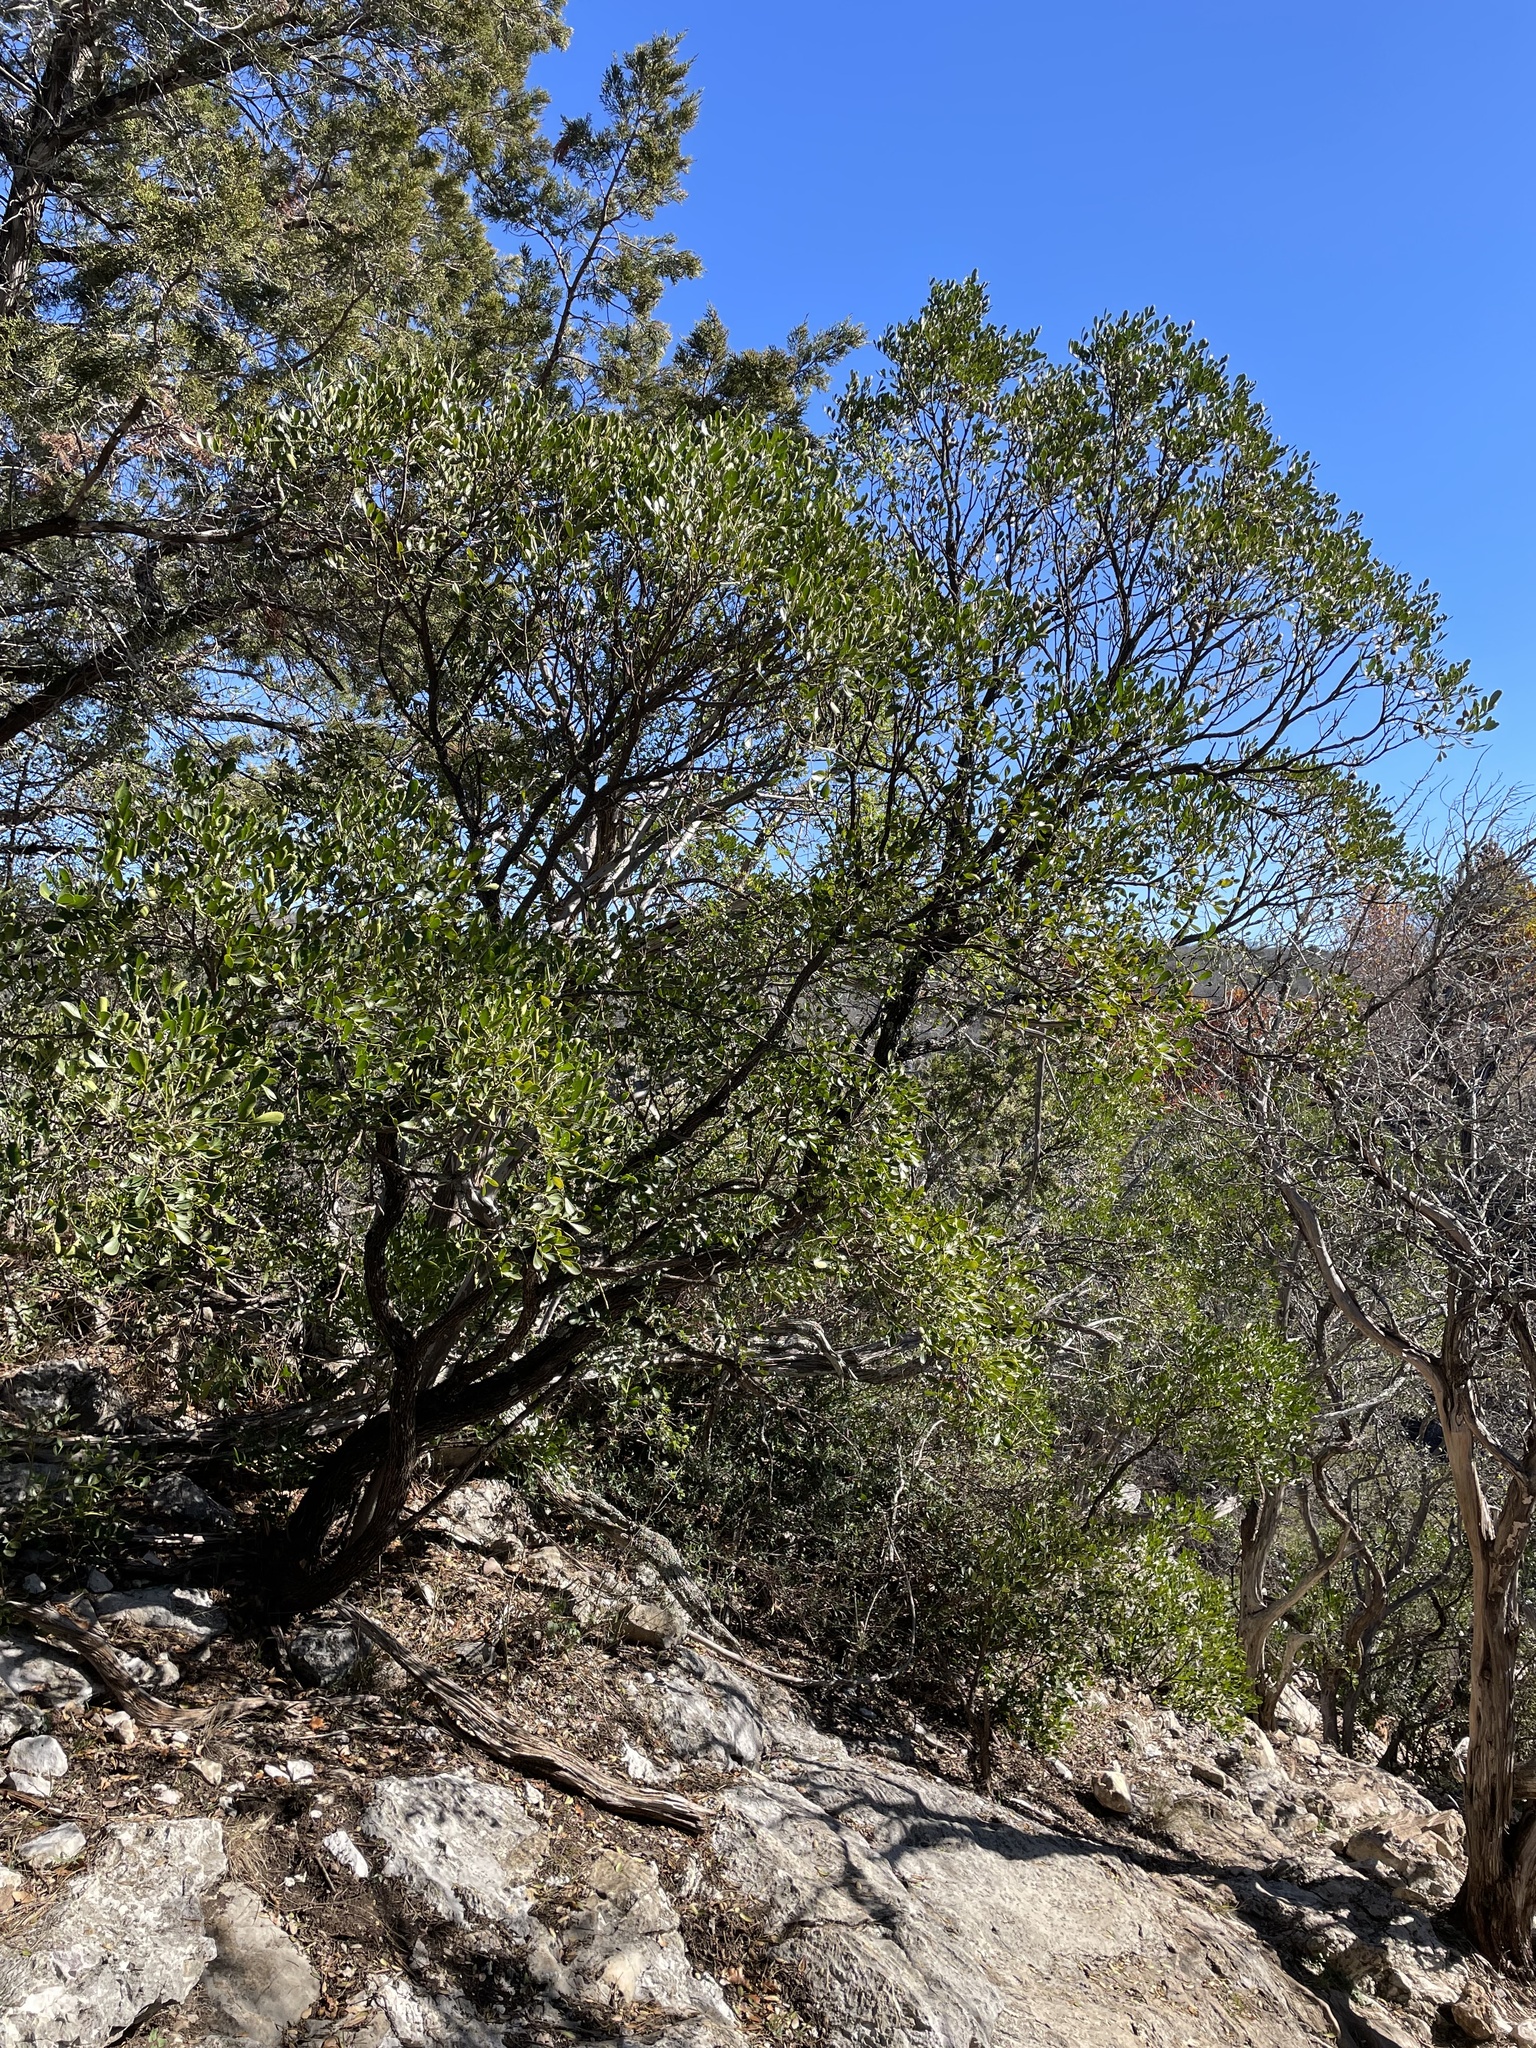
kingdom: Plantae
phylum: Tracheophyta
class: Magnoliopsida
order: Fabales
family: Fabaceae
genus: Dermatophyllum
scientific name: Dermatophyllum secundiflorum
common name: Texas-mountain-laurel
